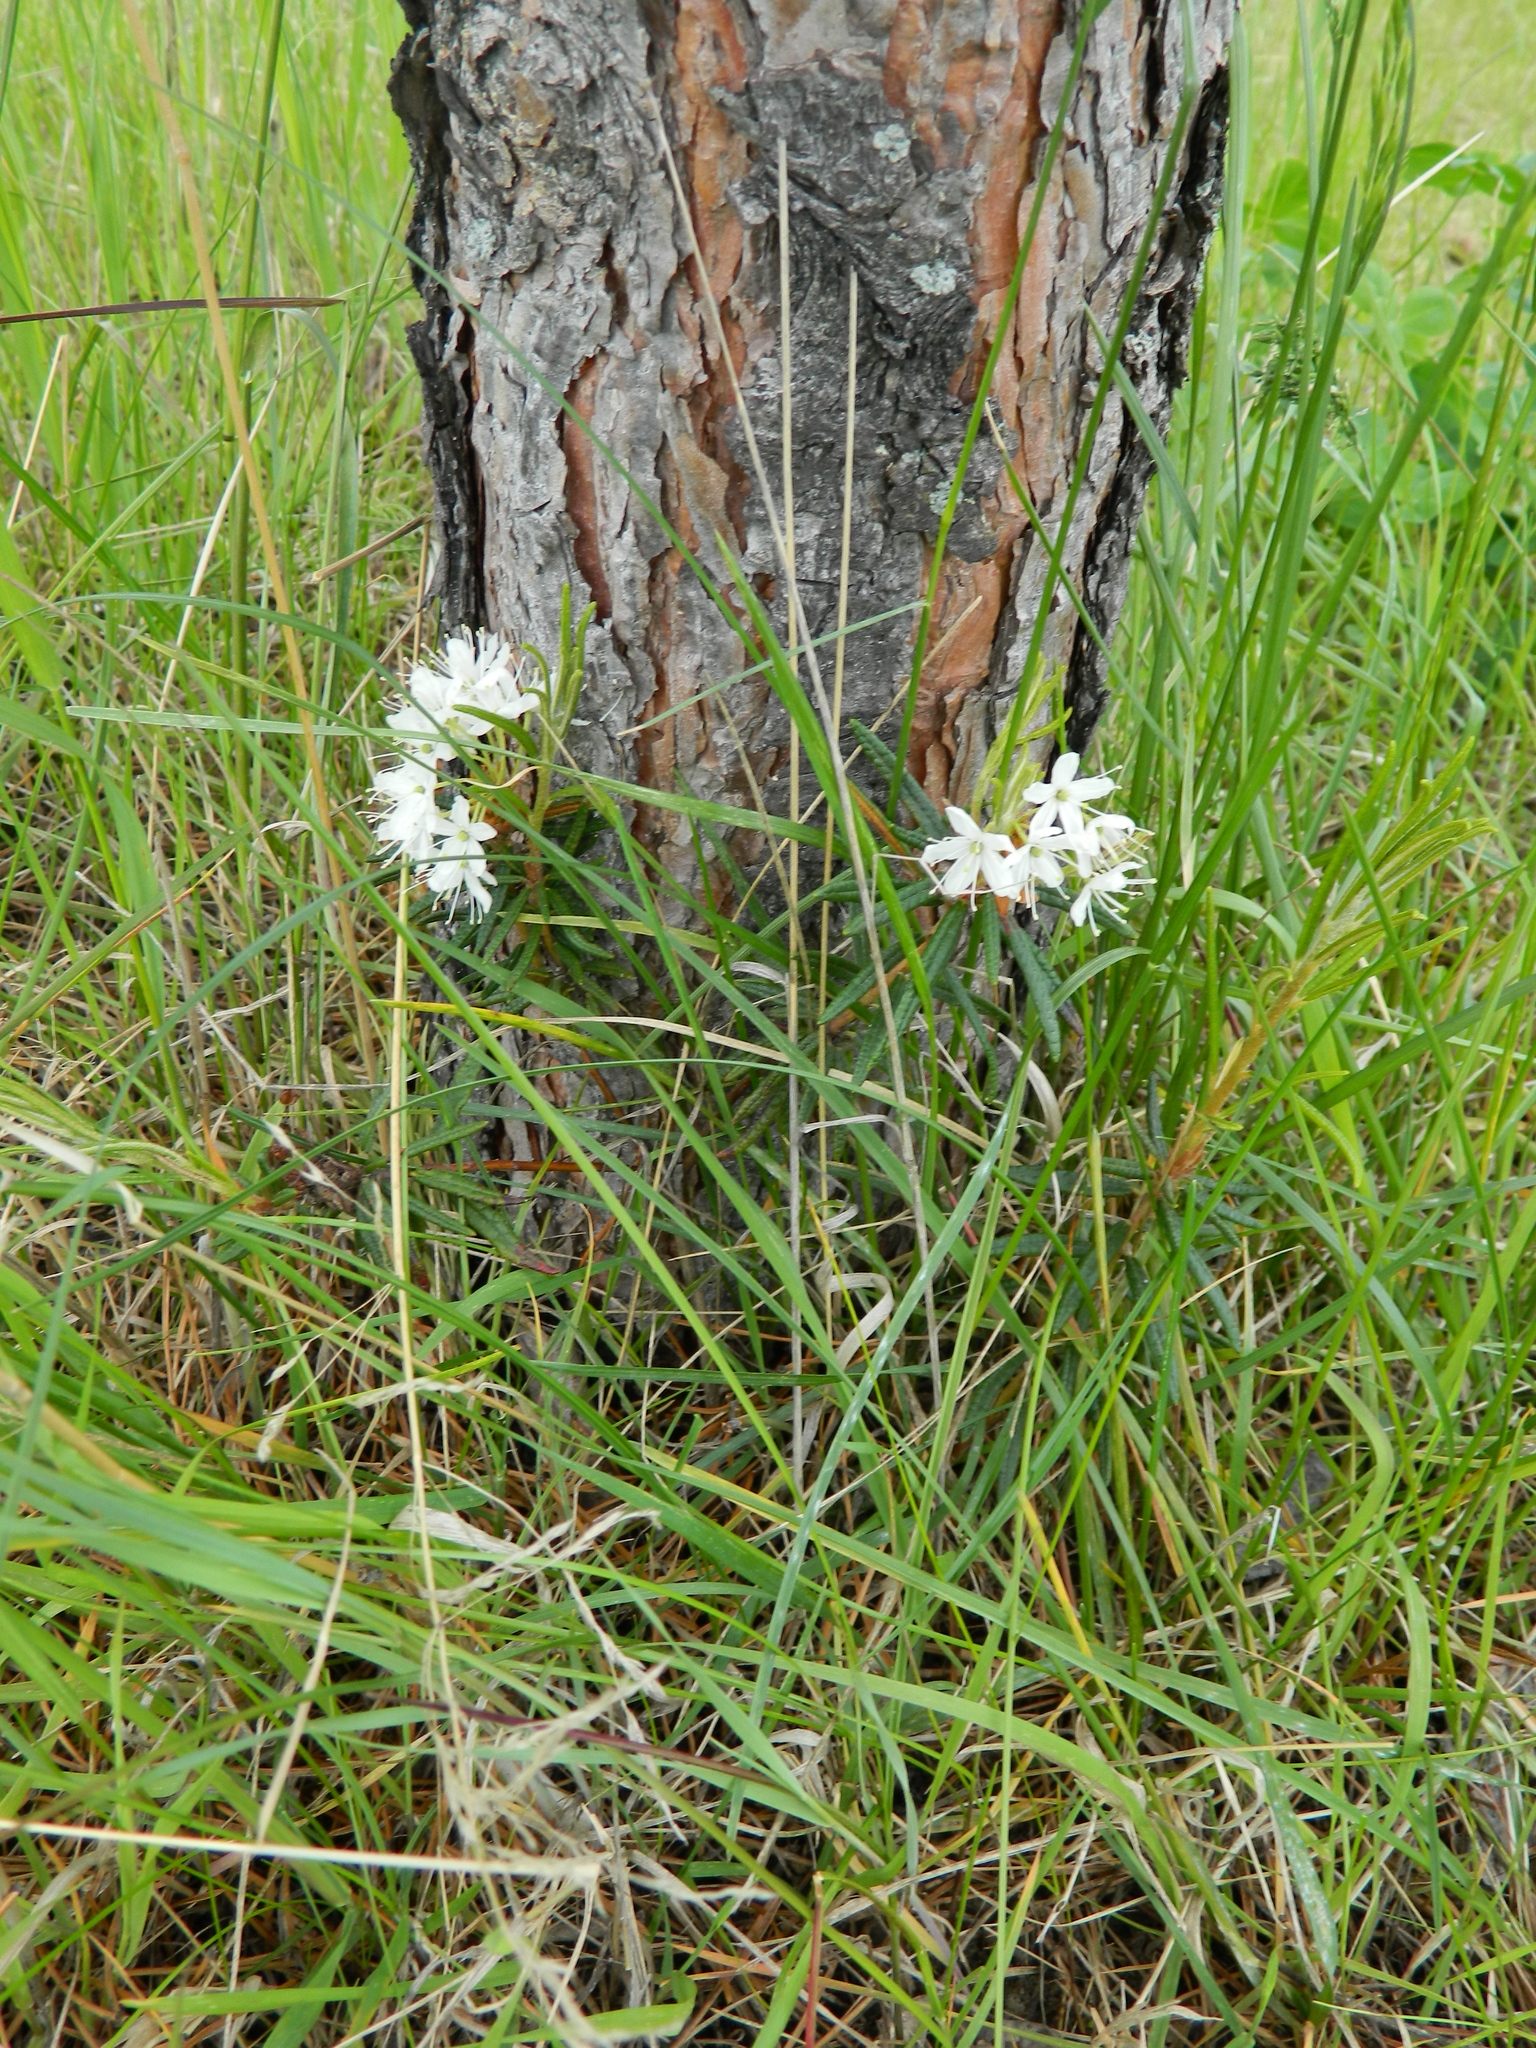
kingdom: Plantae
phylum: Tracheophyta
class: Magnoliopsida
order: Ericales
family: Ericaceae
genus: Rhododendron
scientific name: Rhododendron tomentosum
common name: Marsh labrador tea
